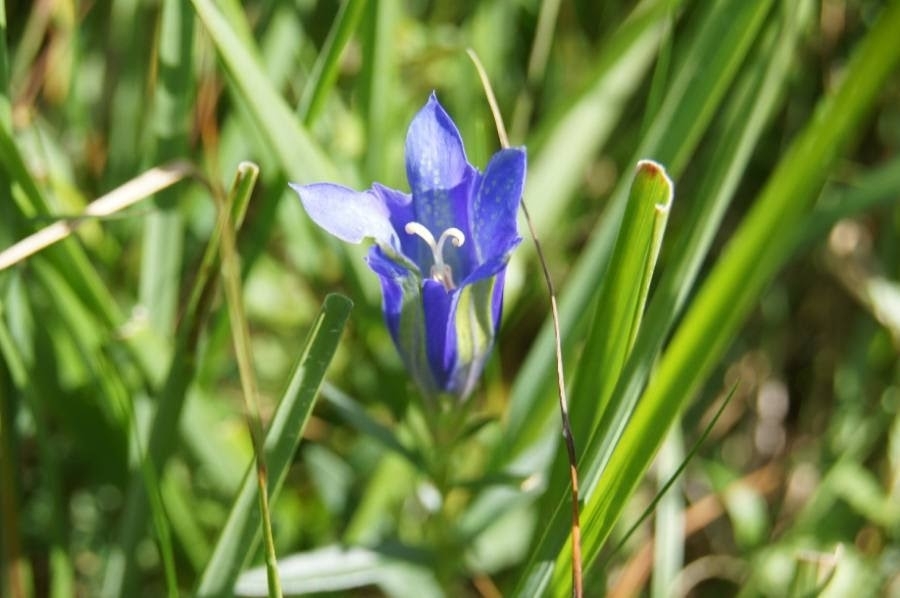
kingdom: Plantae
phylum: Tracheophyta
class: Magnoliopsida
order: Gentianales
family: Gentianaceae
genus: Gentiana
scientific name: Gentiana pneumonanthe
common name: Marsh gentian
